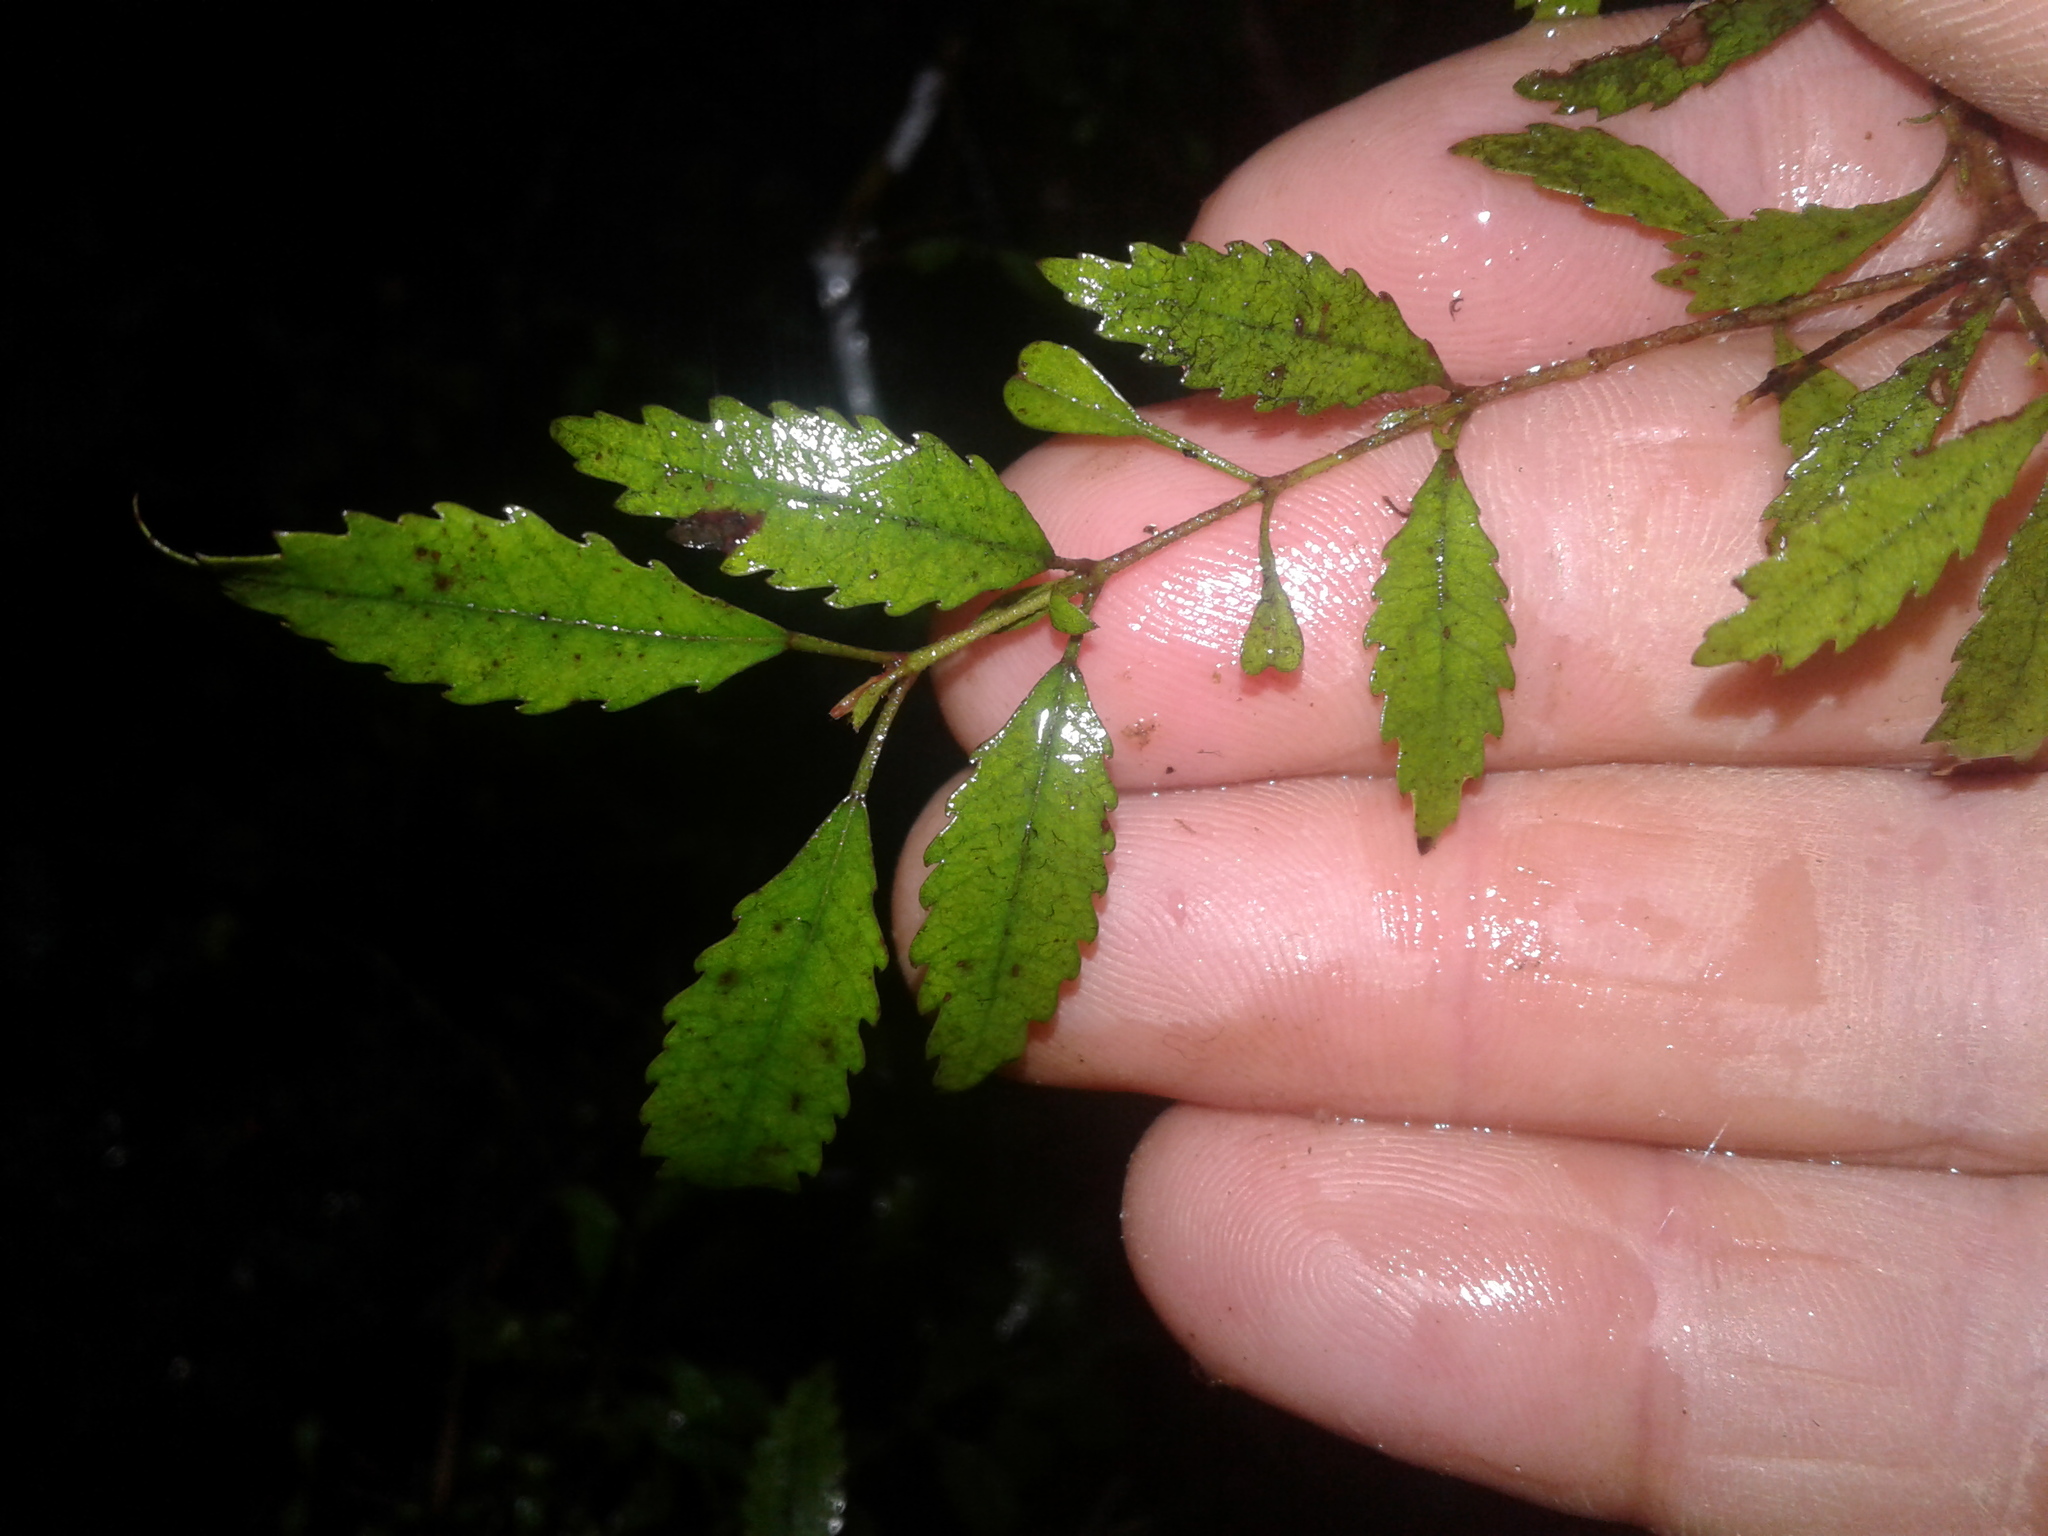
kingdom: Plantae
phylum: Tracheophyta
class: Magnoliopsida
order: Oxalidales
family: Cunoniaceae
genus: Pterophylla
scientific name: Pterophylla racemosa
